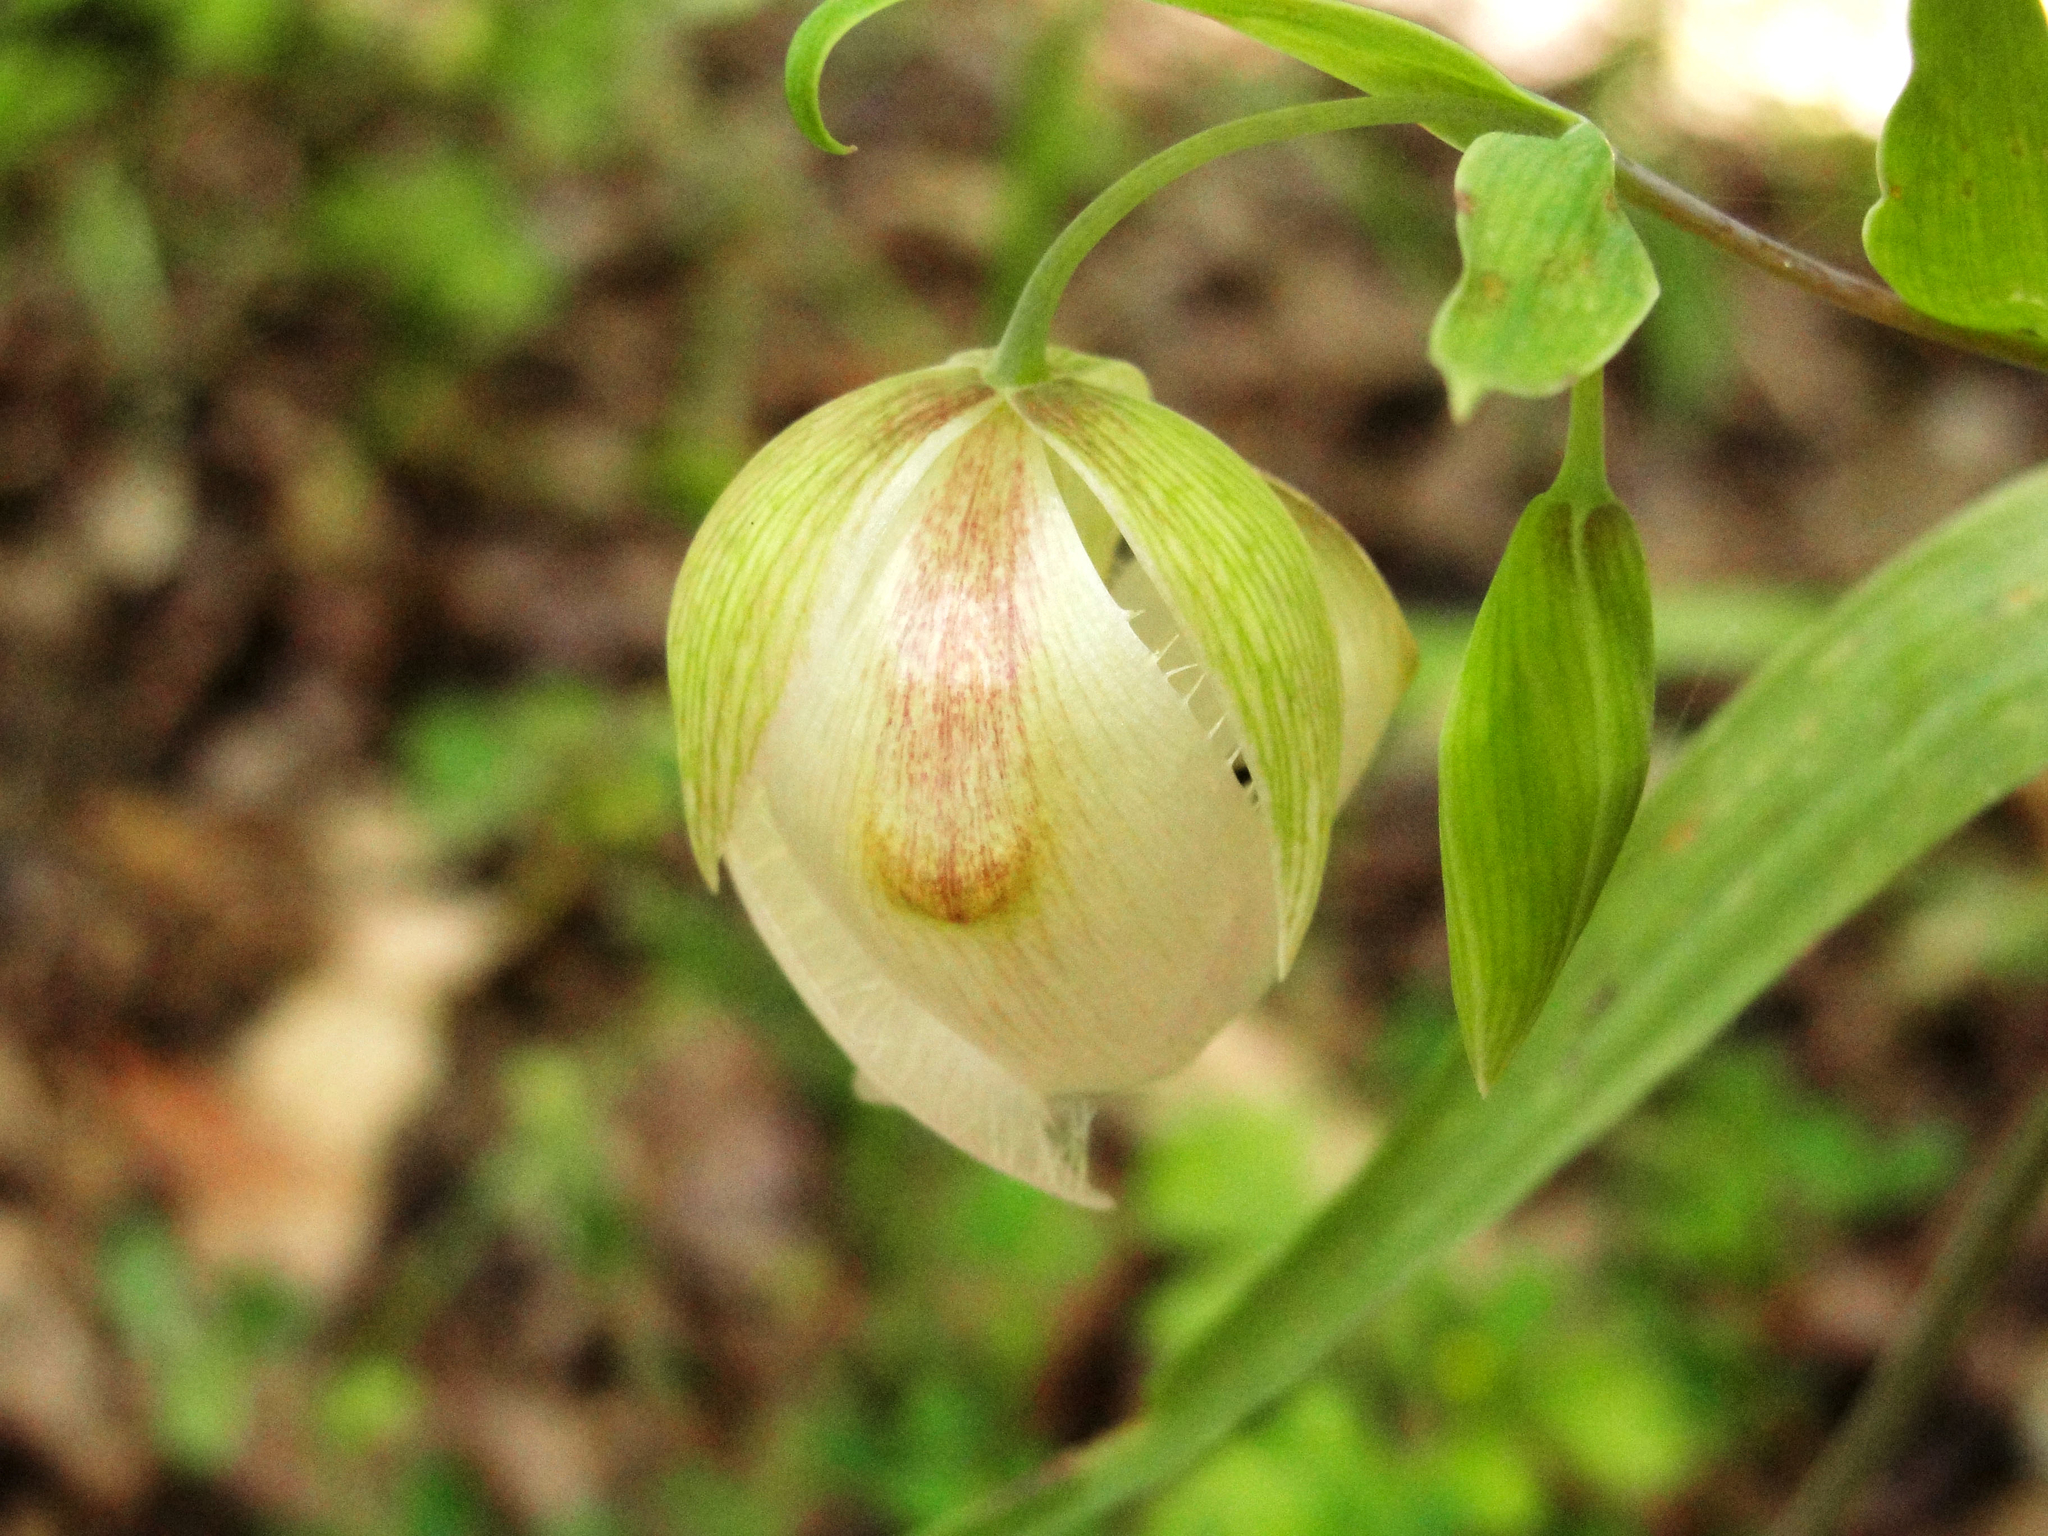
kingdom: Plantae
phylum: Tracheophyta
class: Liliopsida
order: Liliales
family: Liliaceae
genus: Calochortus
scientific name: Calochortus albus
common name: Fairy-lantern
